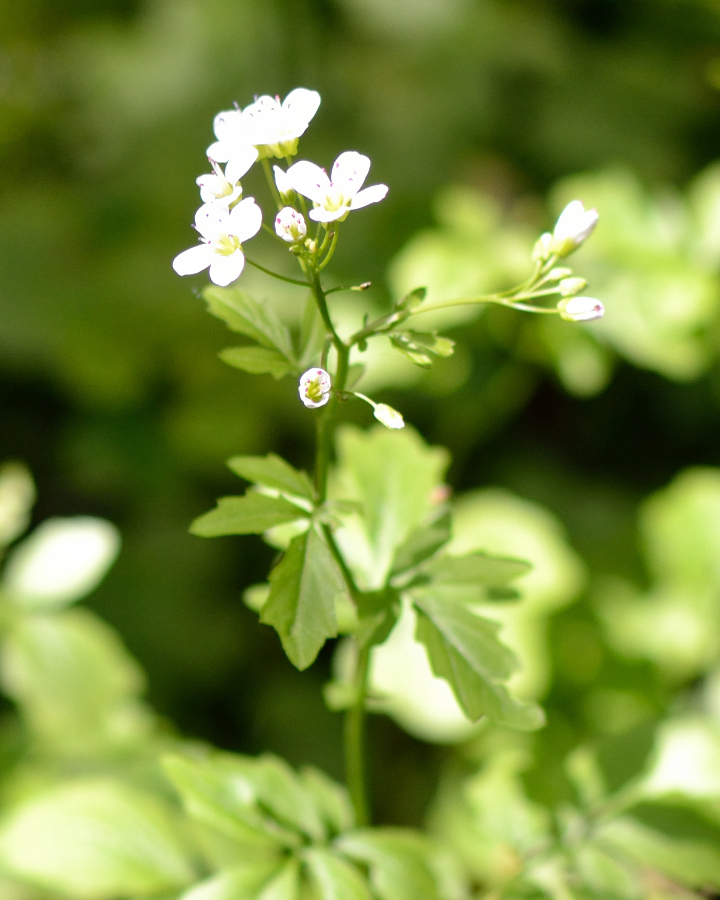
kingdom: Plantae
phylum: Tracheophyta
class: Magnoliopsida
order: Brassicales
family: Brassicaceae
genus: Cardamine
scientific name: Cardamine amara
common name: Large bitter-cress
